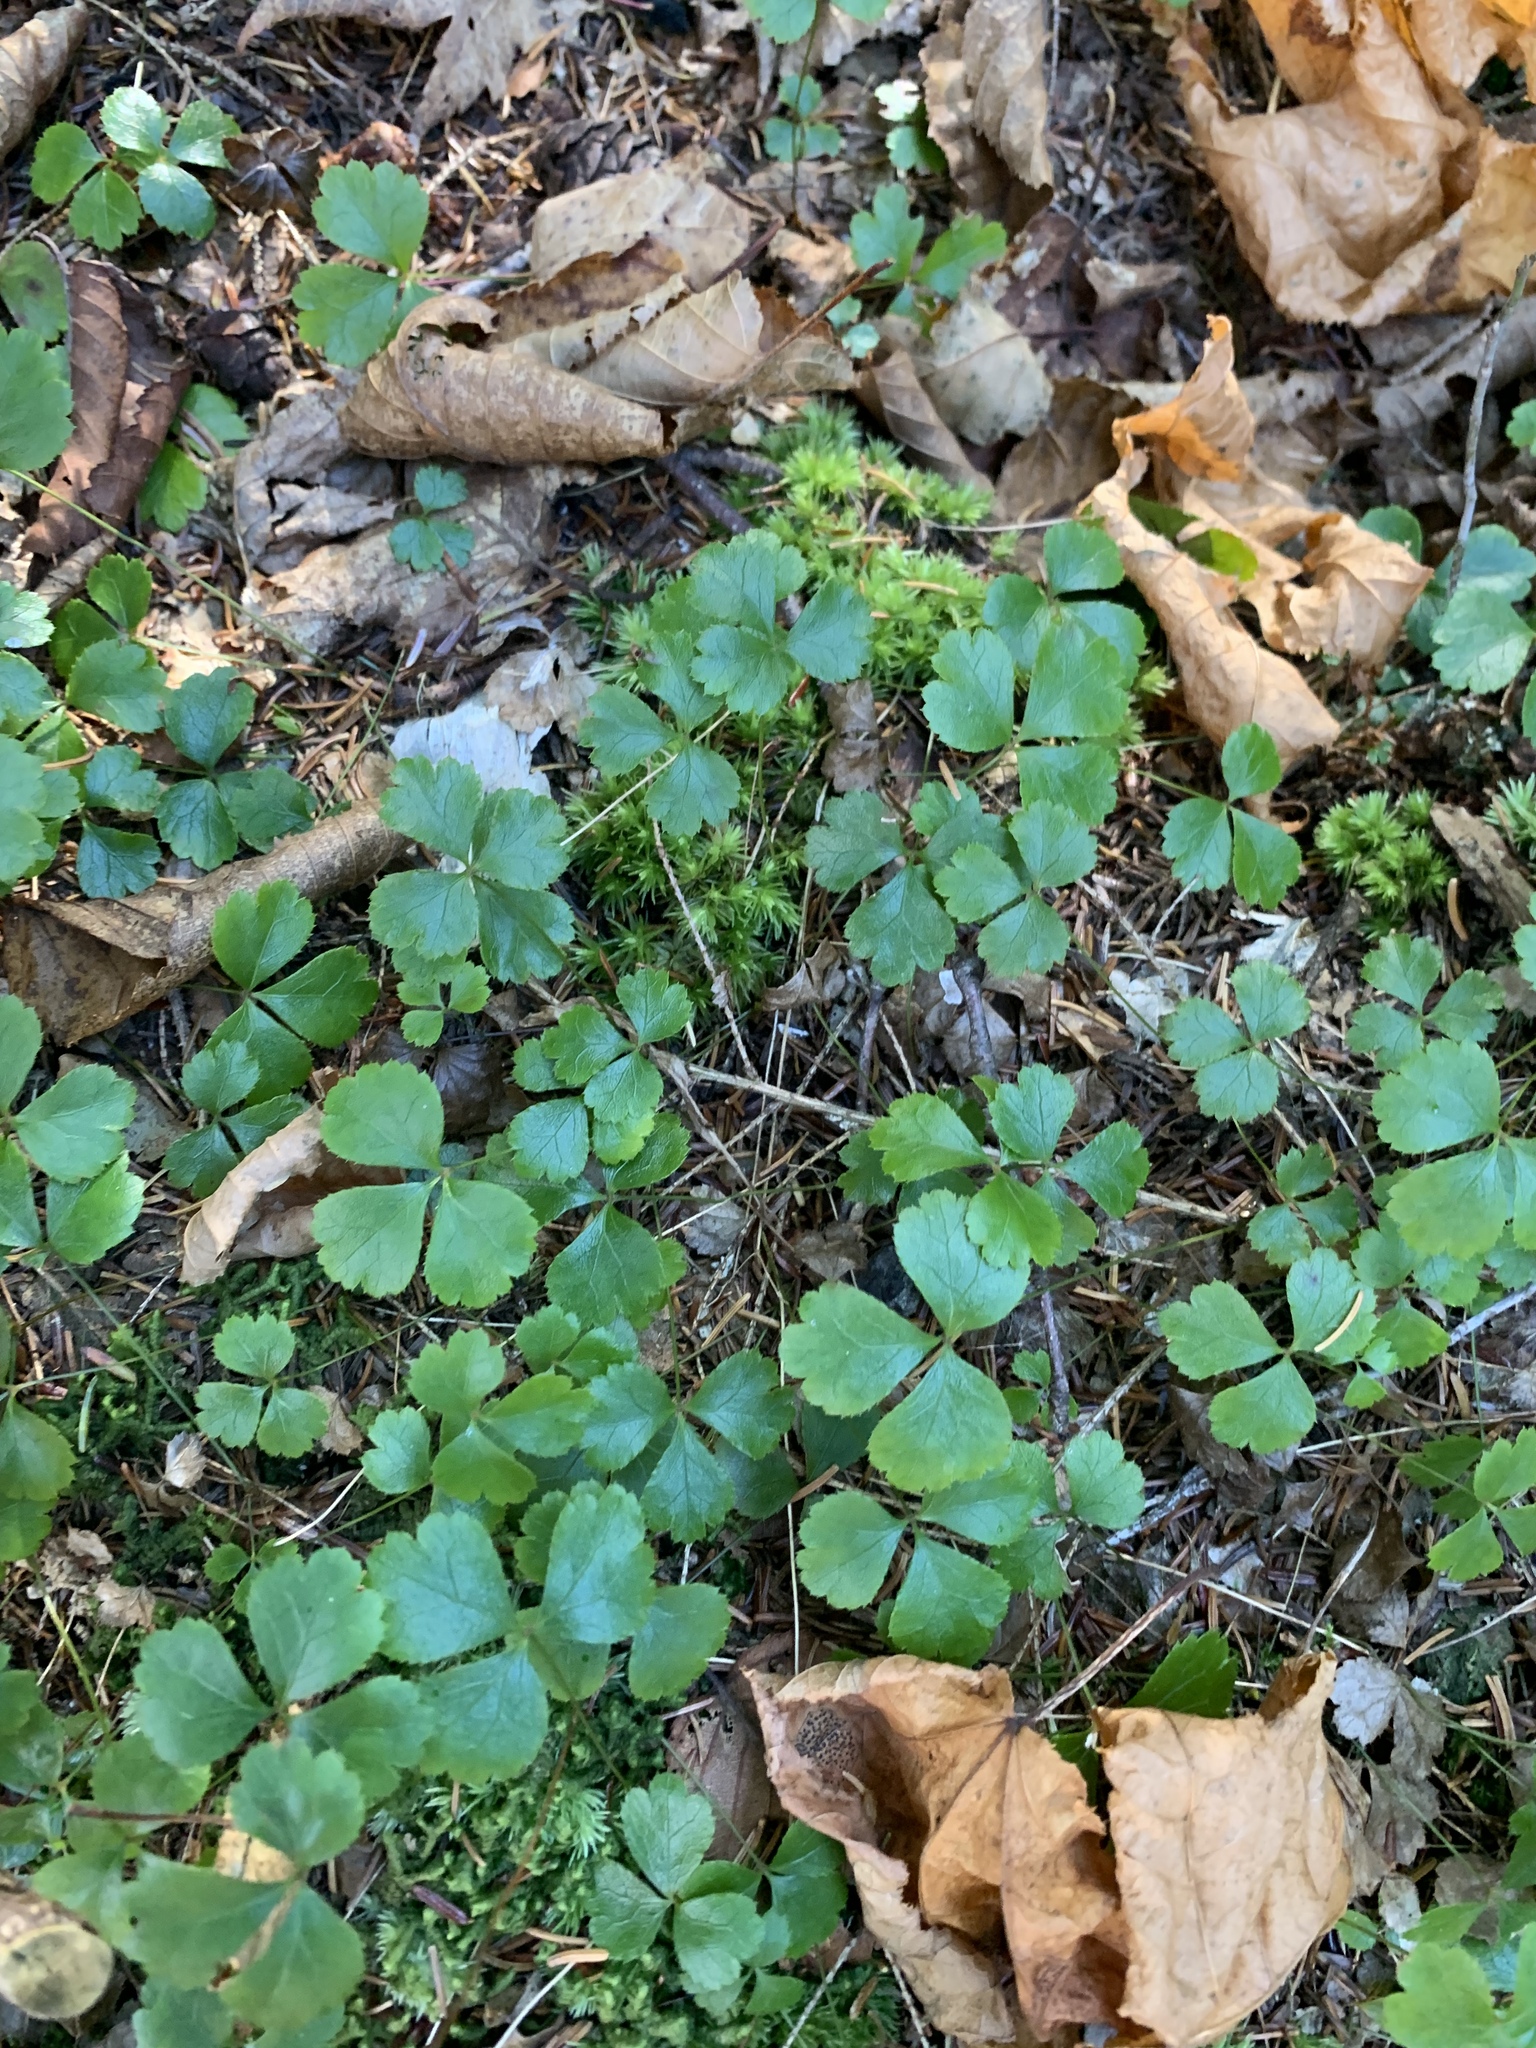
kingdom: Plantae
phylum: Tracheophyta
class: Magnoliopsida
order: Ranunculales
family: Ranunculaceae
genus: Coptis
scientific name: Coptis trifolia
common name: Canker-root
